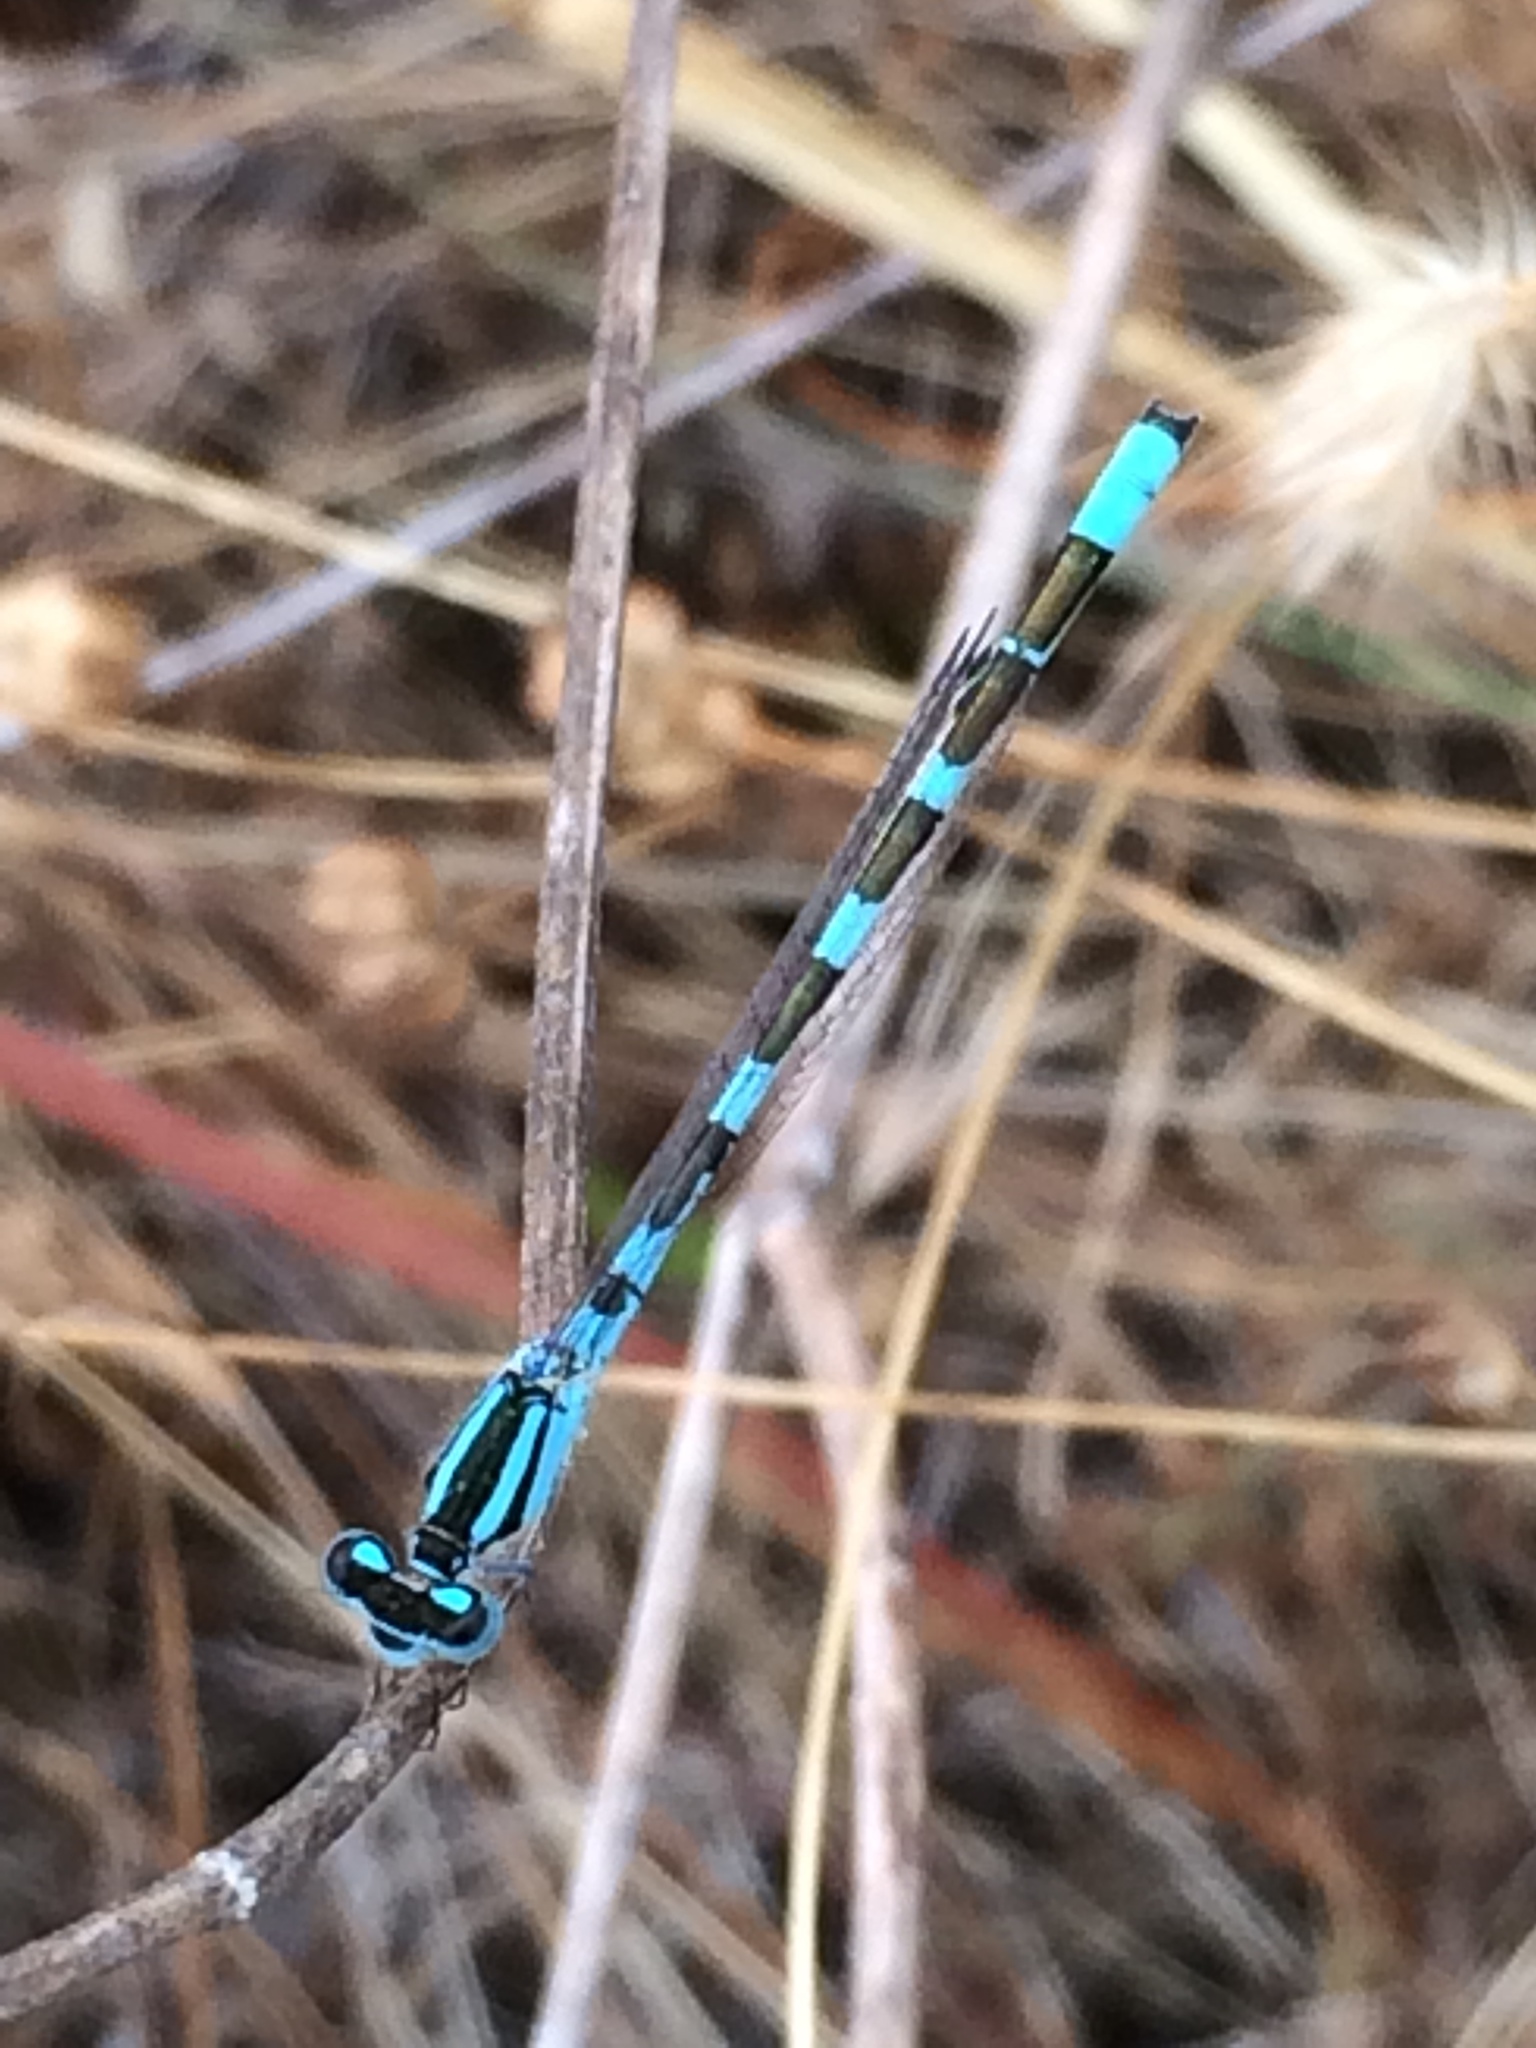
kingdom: Animalia
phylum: Arthropoda
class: Insecta
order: Odonata
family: Coenagrionidae
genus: Enallagma
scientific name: Enallagma carunculatum
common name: Tule bluet
